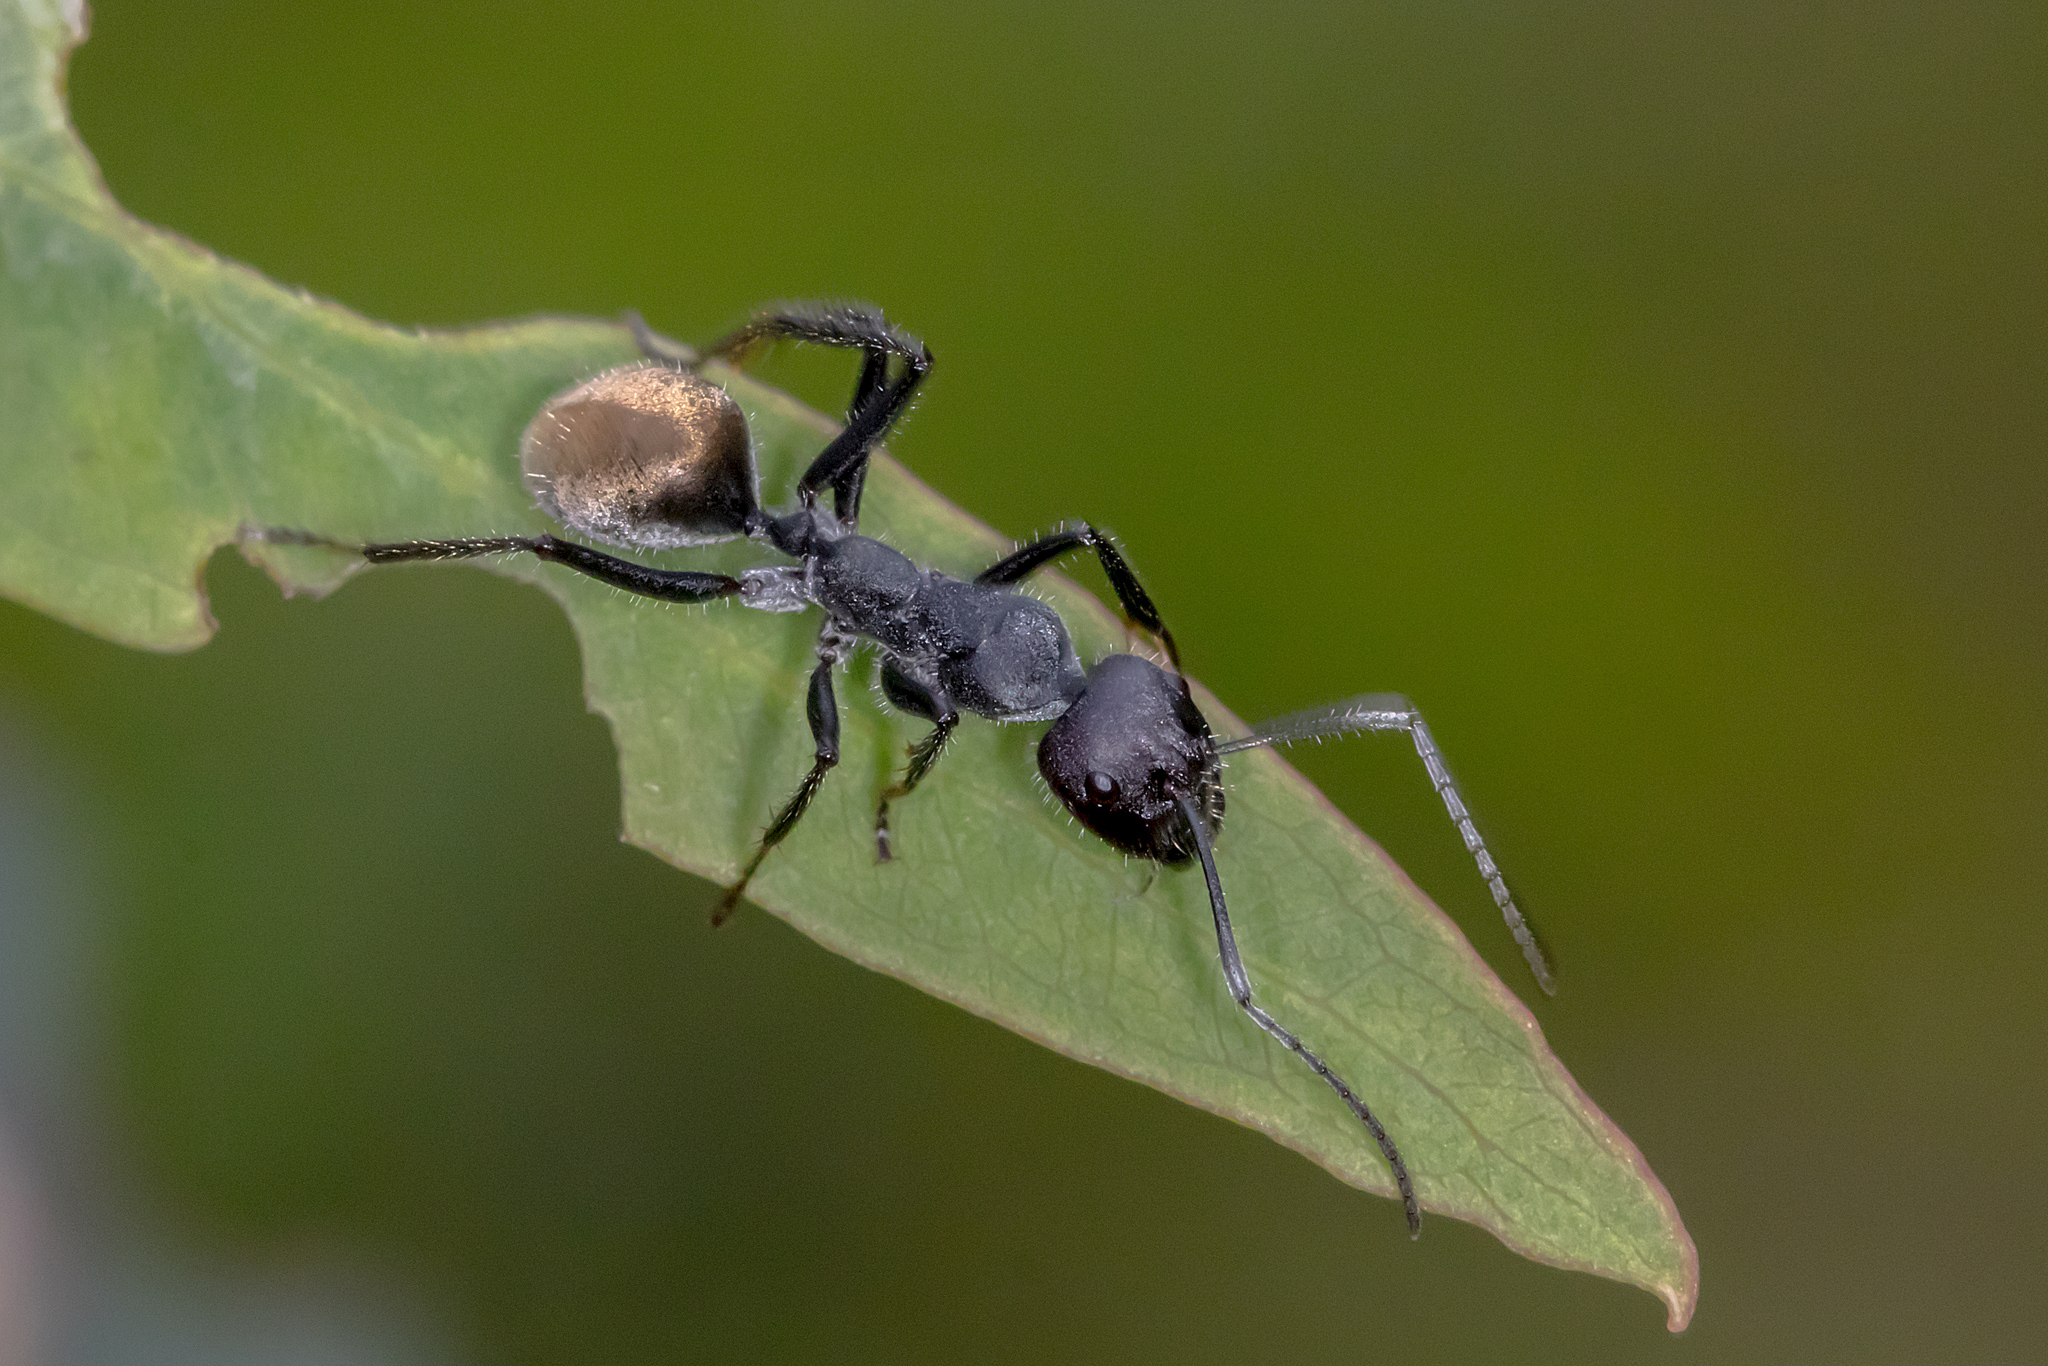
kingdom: Animalia
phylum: Arthropoda
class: Insecta
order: Hymenoptera
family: Formicidae
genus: Camponotus
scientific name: Camponotus suffusus
